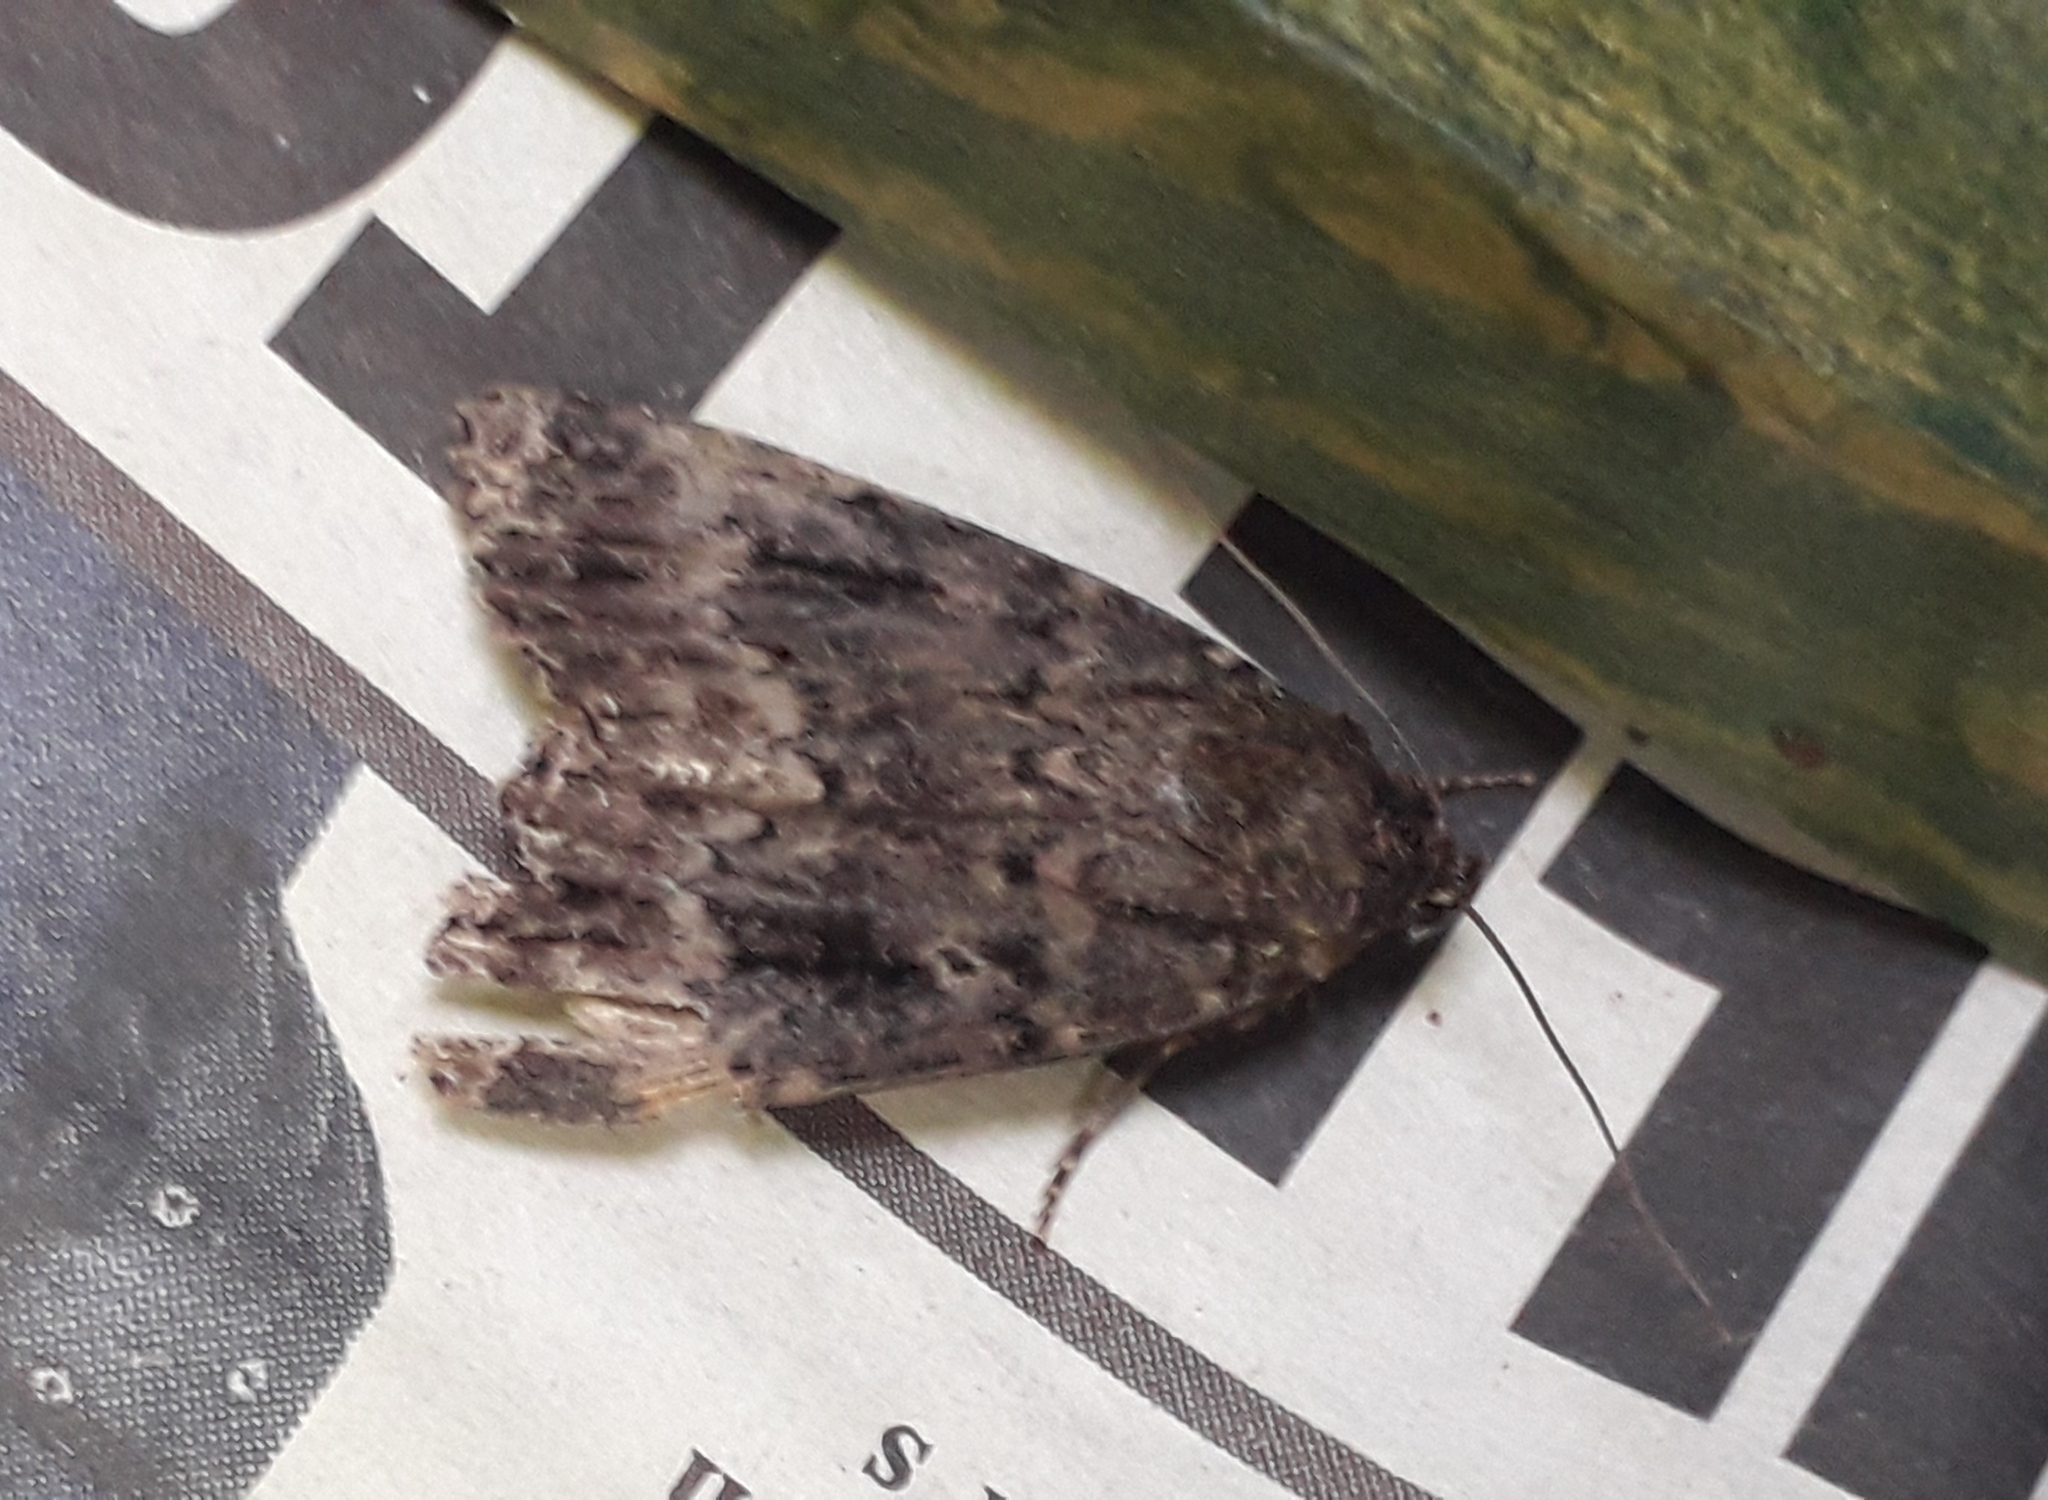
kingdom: Animalia
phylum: Arthropoda
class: Insecta
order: Lepidoptera
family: Noctuidae
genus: Amphipyra
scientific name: Amphipyra
